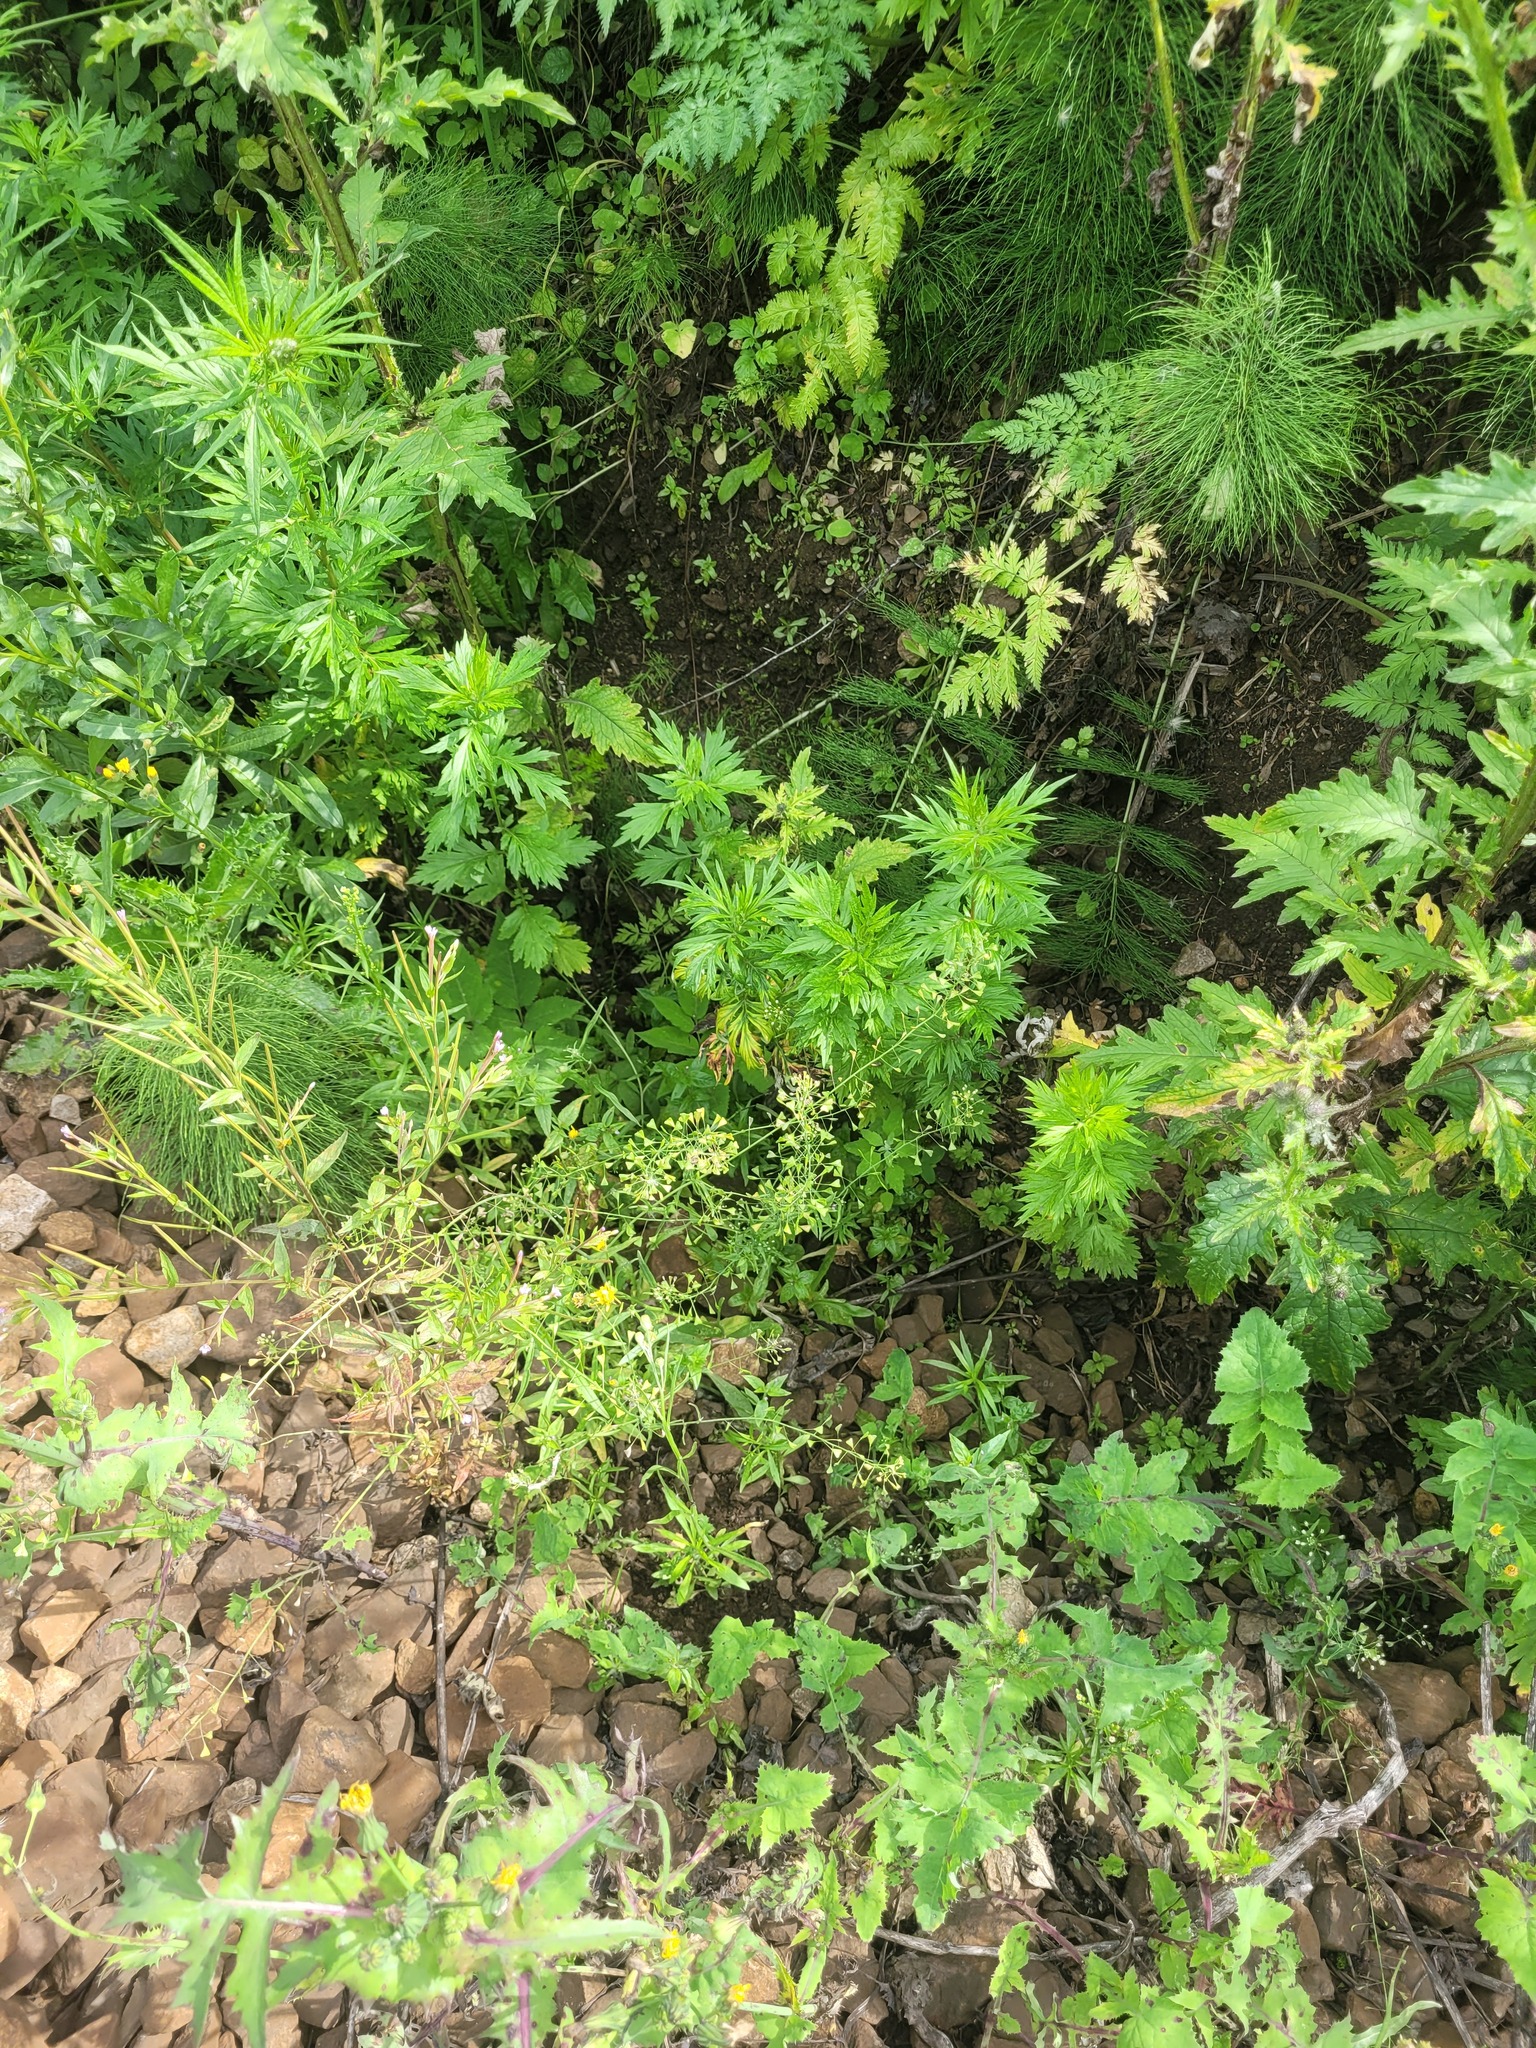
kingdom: Plantae
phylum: Tracheophyta
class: Magnoliopsida
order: Brassicales
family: Brassicaceae
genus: Capsella
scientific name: Capsella bursa-pastoris
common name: Shepherd's purse
